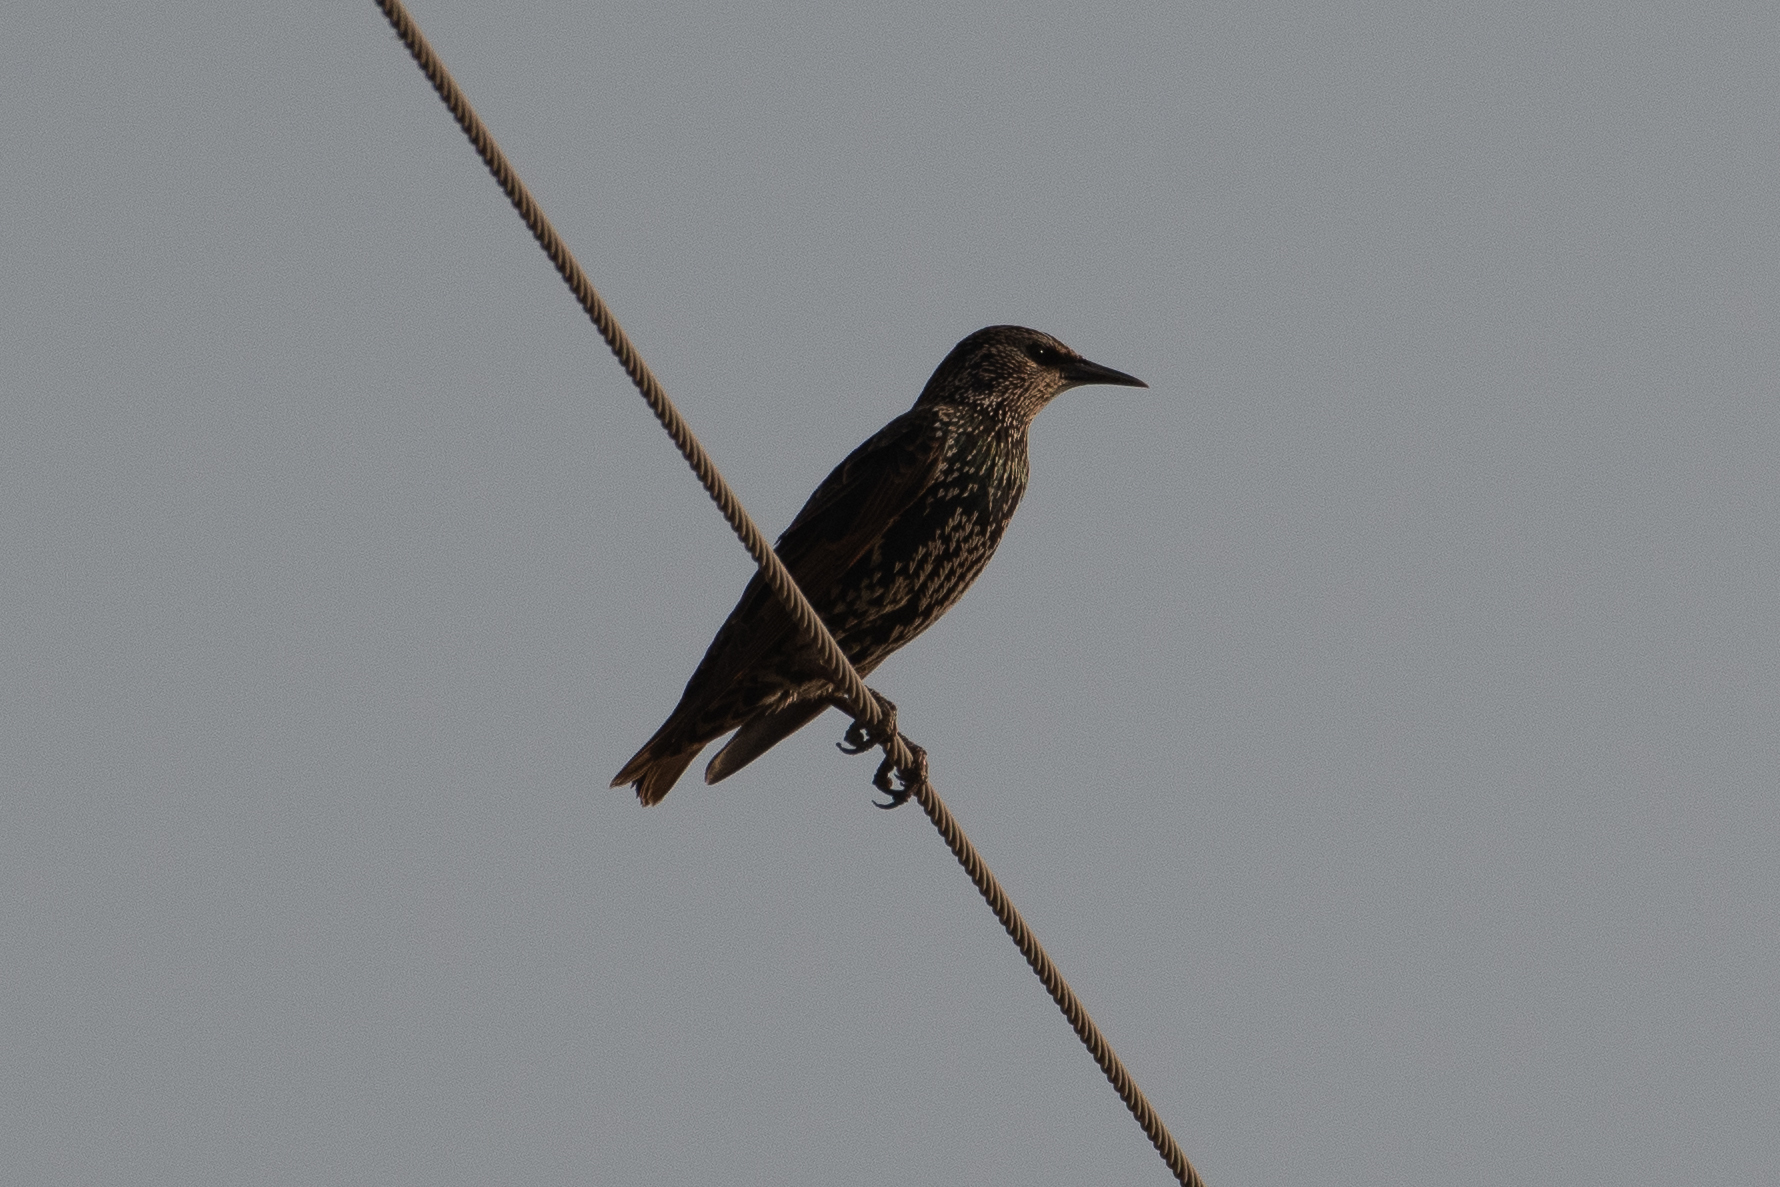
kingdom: Animalia
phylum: Chordata
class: Aves
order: Passeriformes
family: Sturnidae
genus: Sturnus
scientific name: Sturnus vulgaris
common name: Common starling
